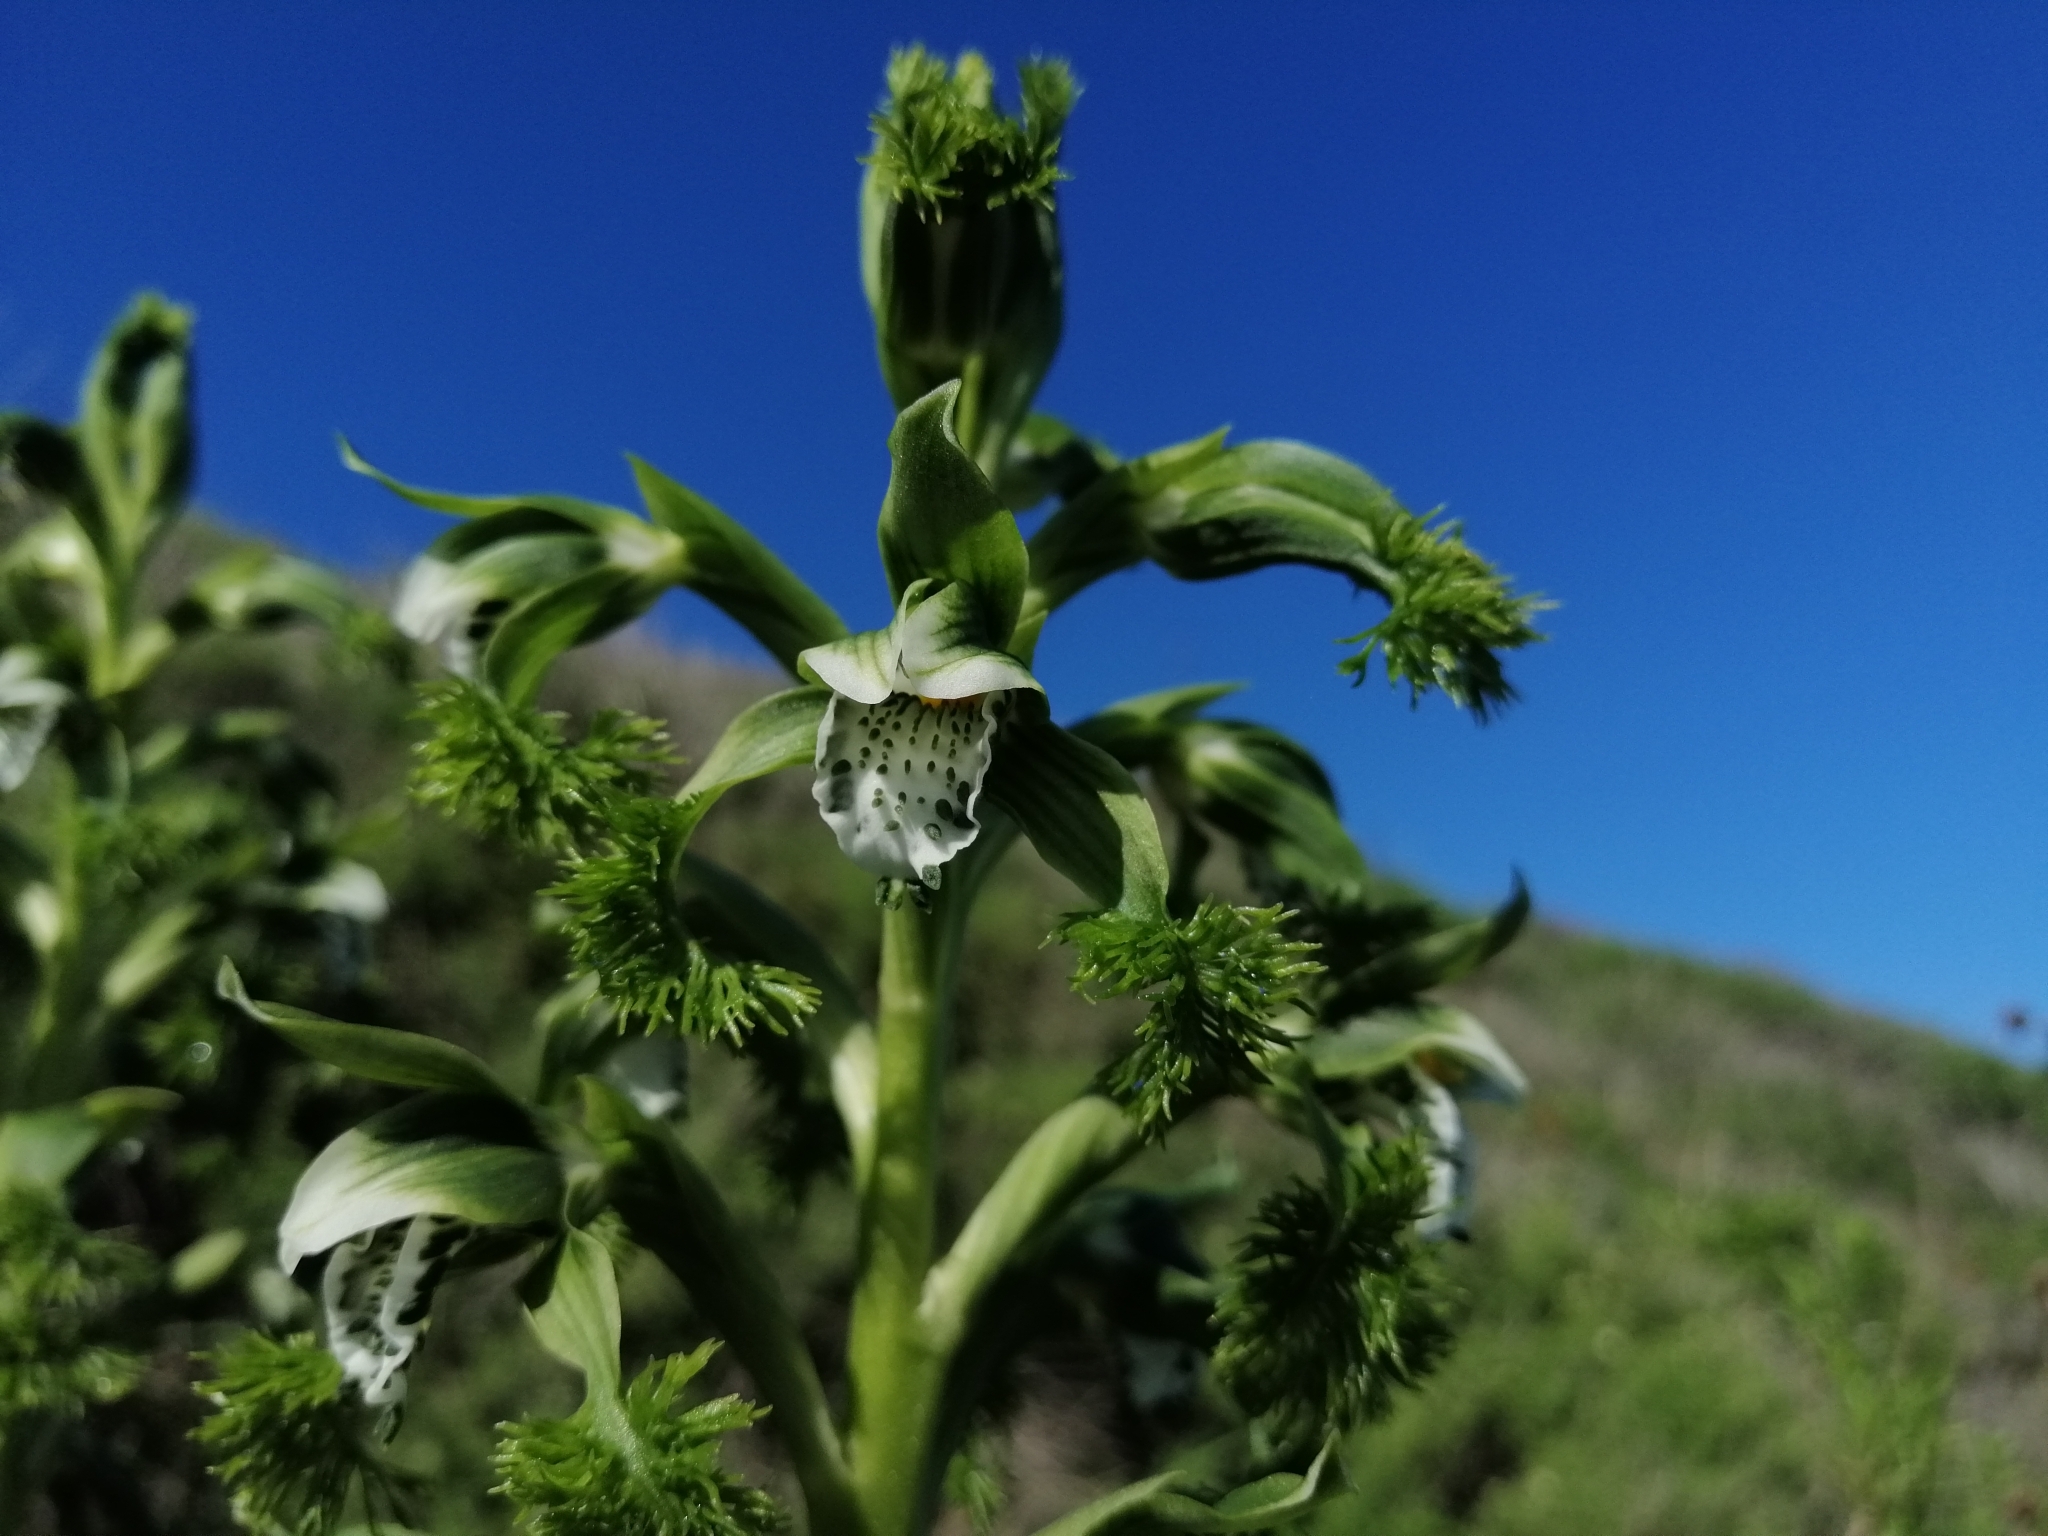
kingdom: Plantae
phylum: Tracheophyta
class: Liliopsida
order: Asparagales
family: Orchidaceae
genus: Bipinnula
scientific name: Bipinnula fimbriata
